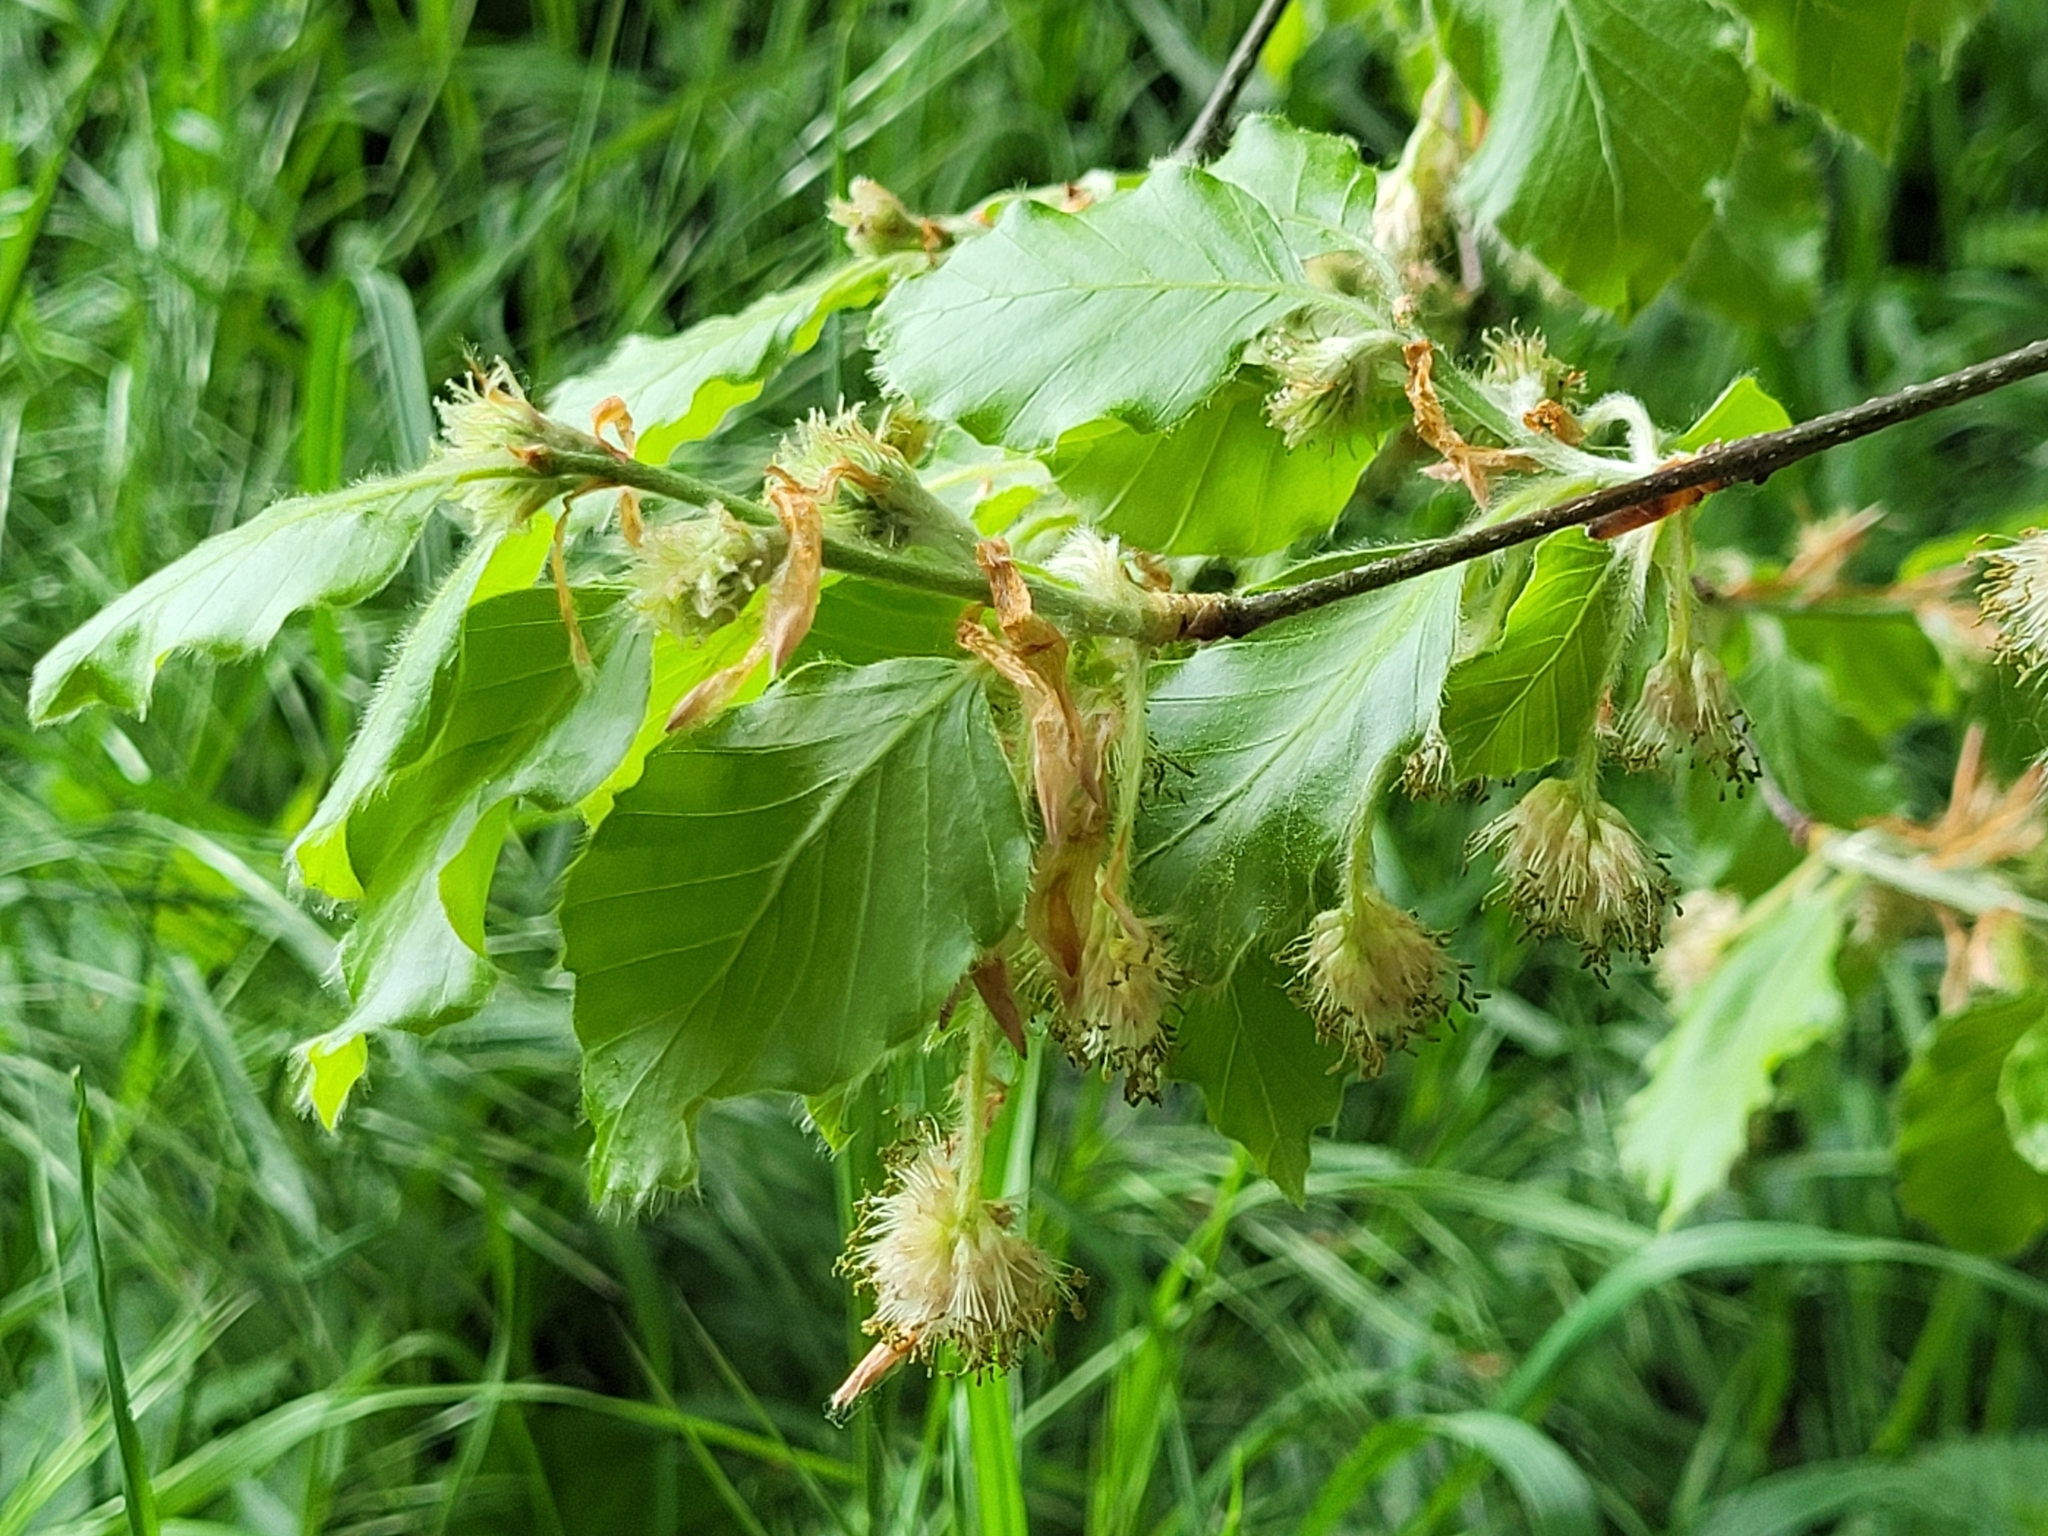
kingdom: Plantae
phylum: Tracheophyta
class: Magnoliopsida
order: Fagales
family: Fagaceae
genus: Fagus
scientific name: Fagus sylvatica
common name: Beech
